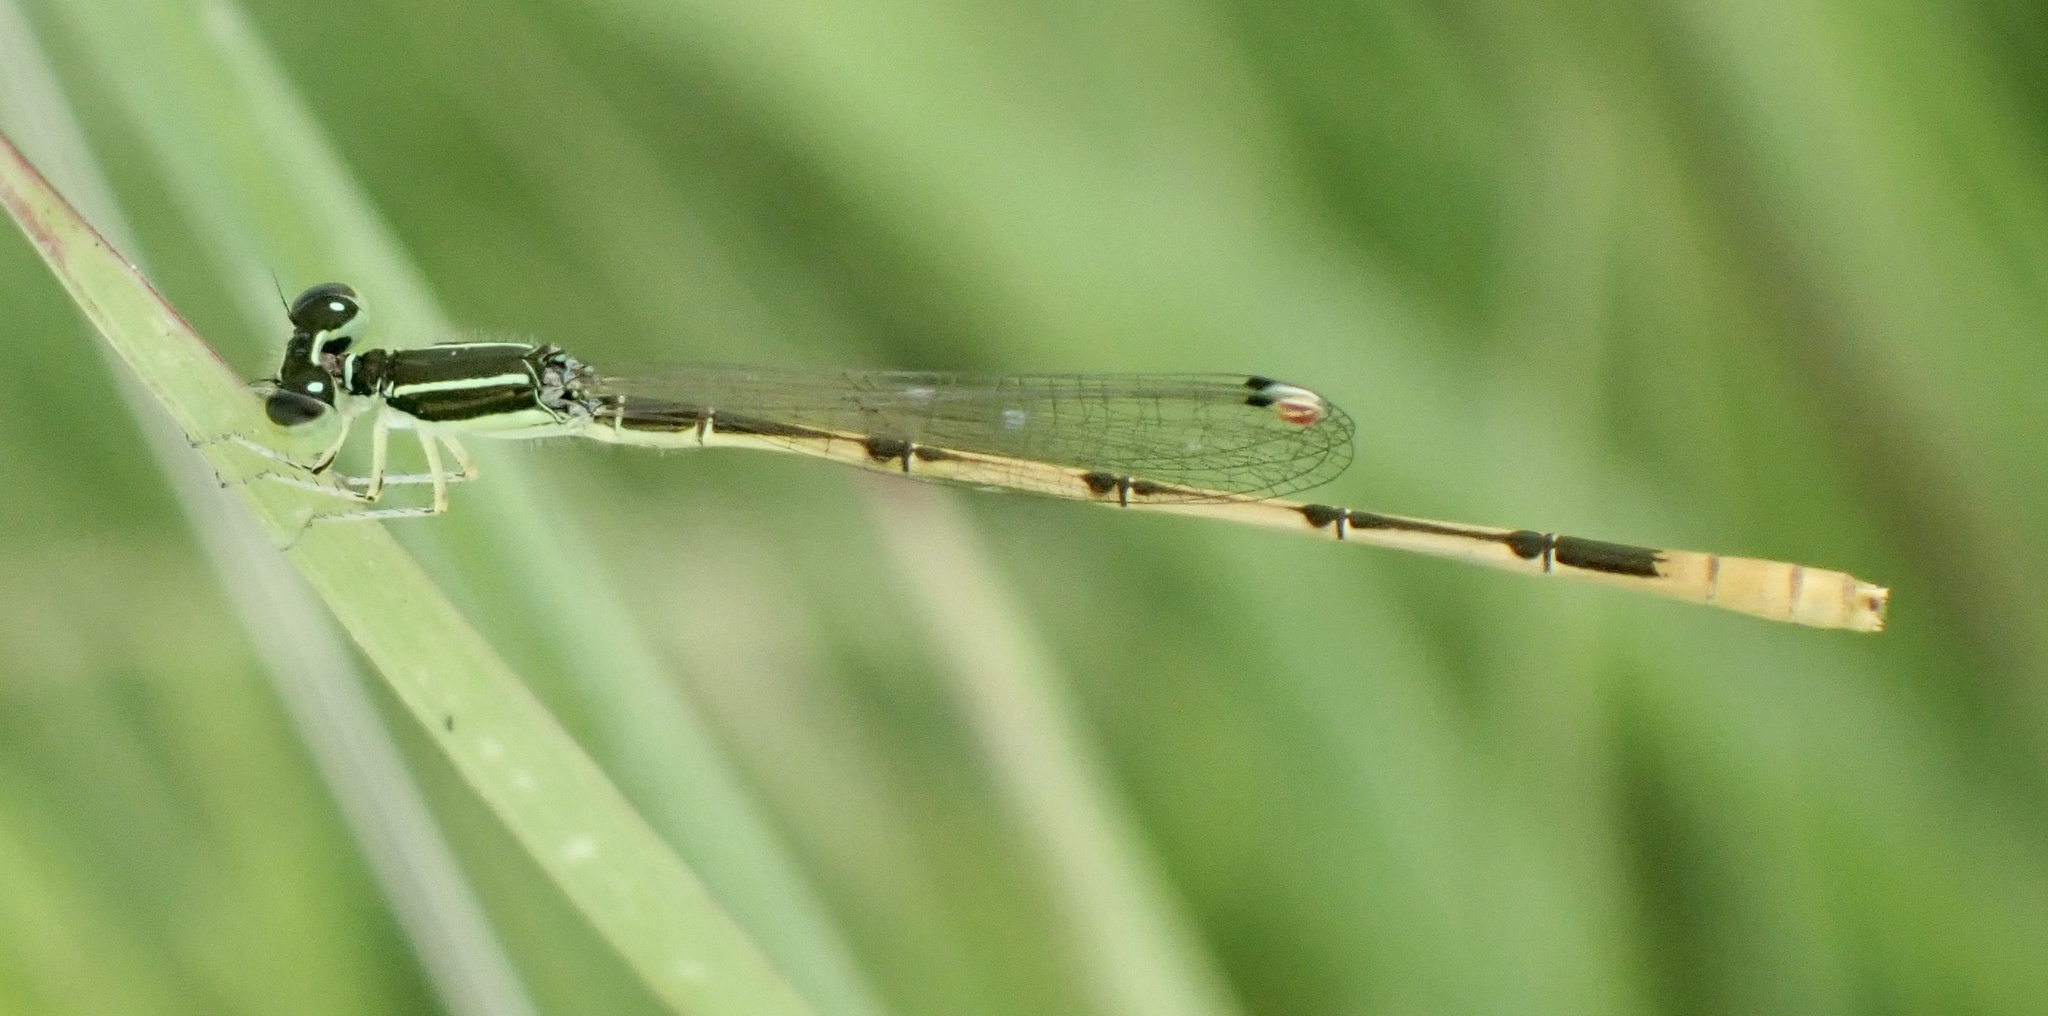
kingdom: Animalia
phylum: Arthropoda
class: Insecta
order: Odonata
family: Coenagrionidae
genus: Ischnura
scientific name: Ischnura hastata
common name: Citrine forktail
